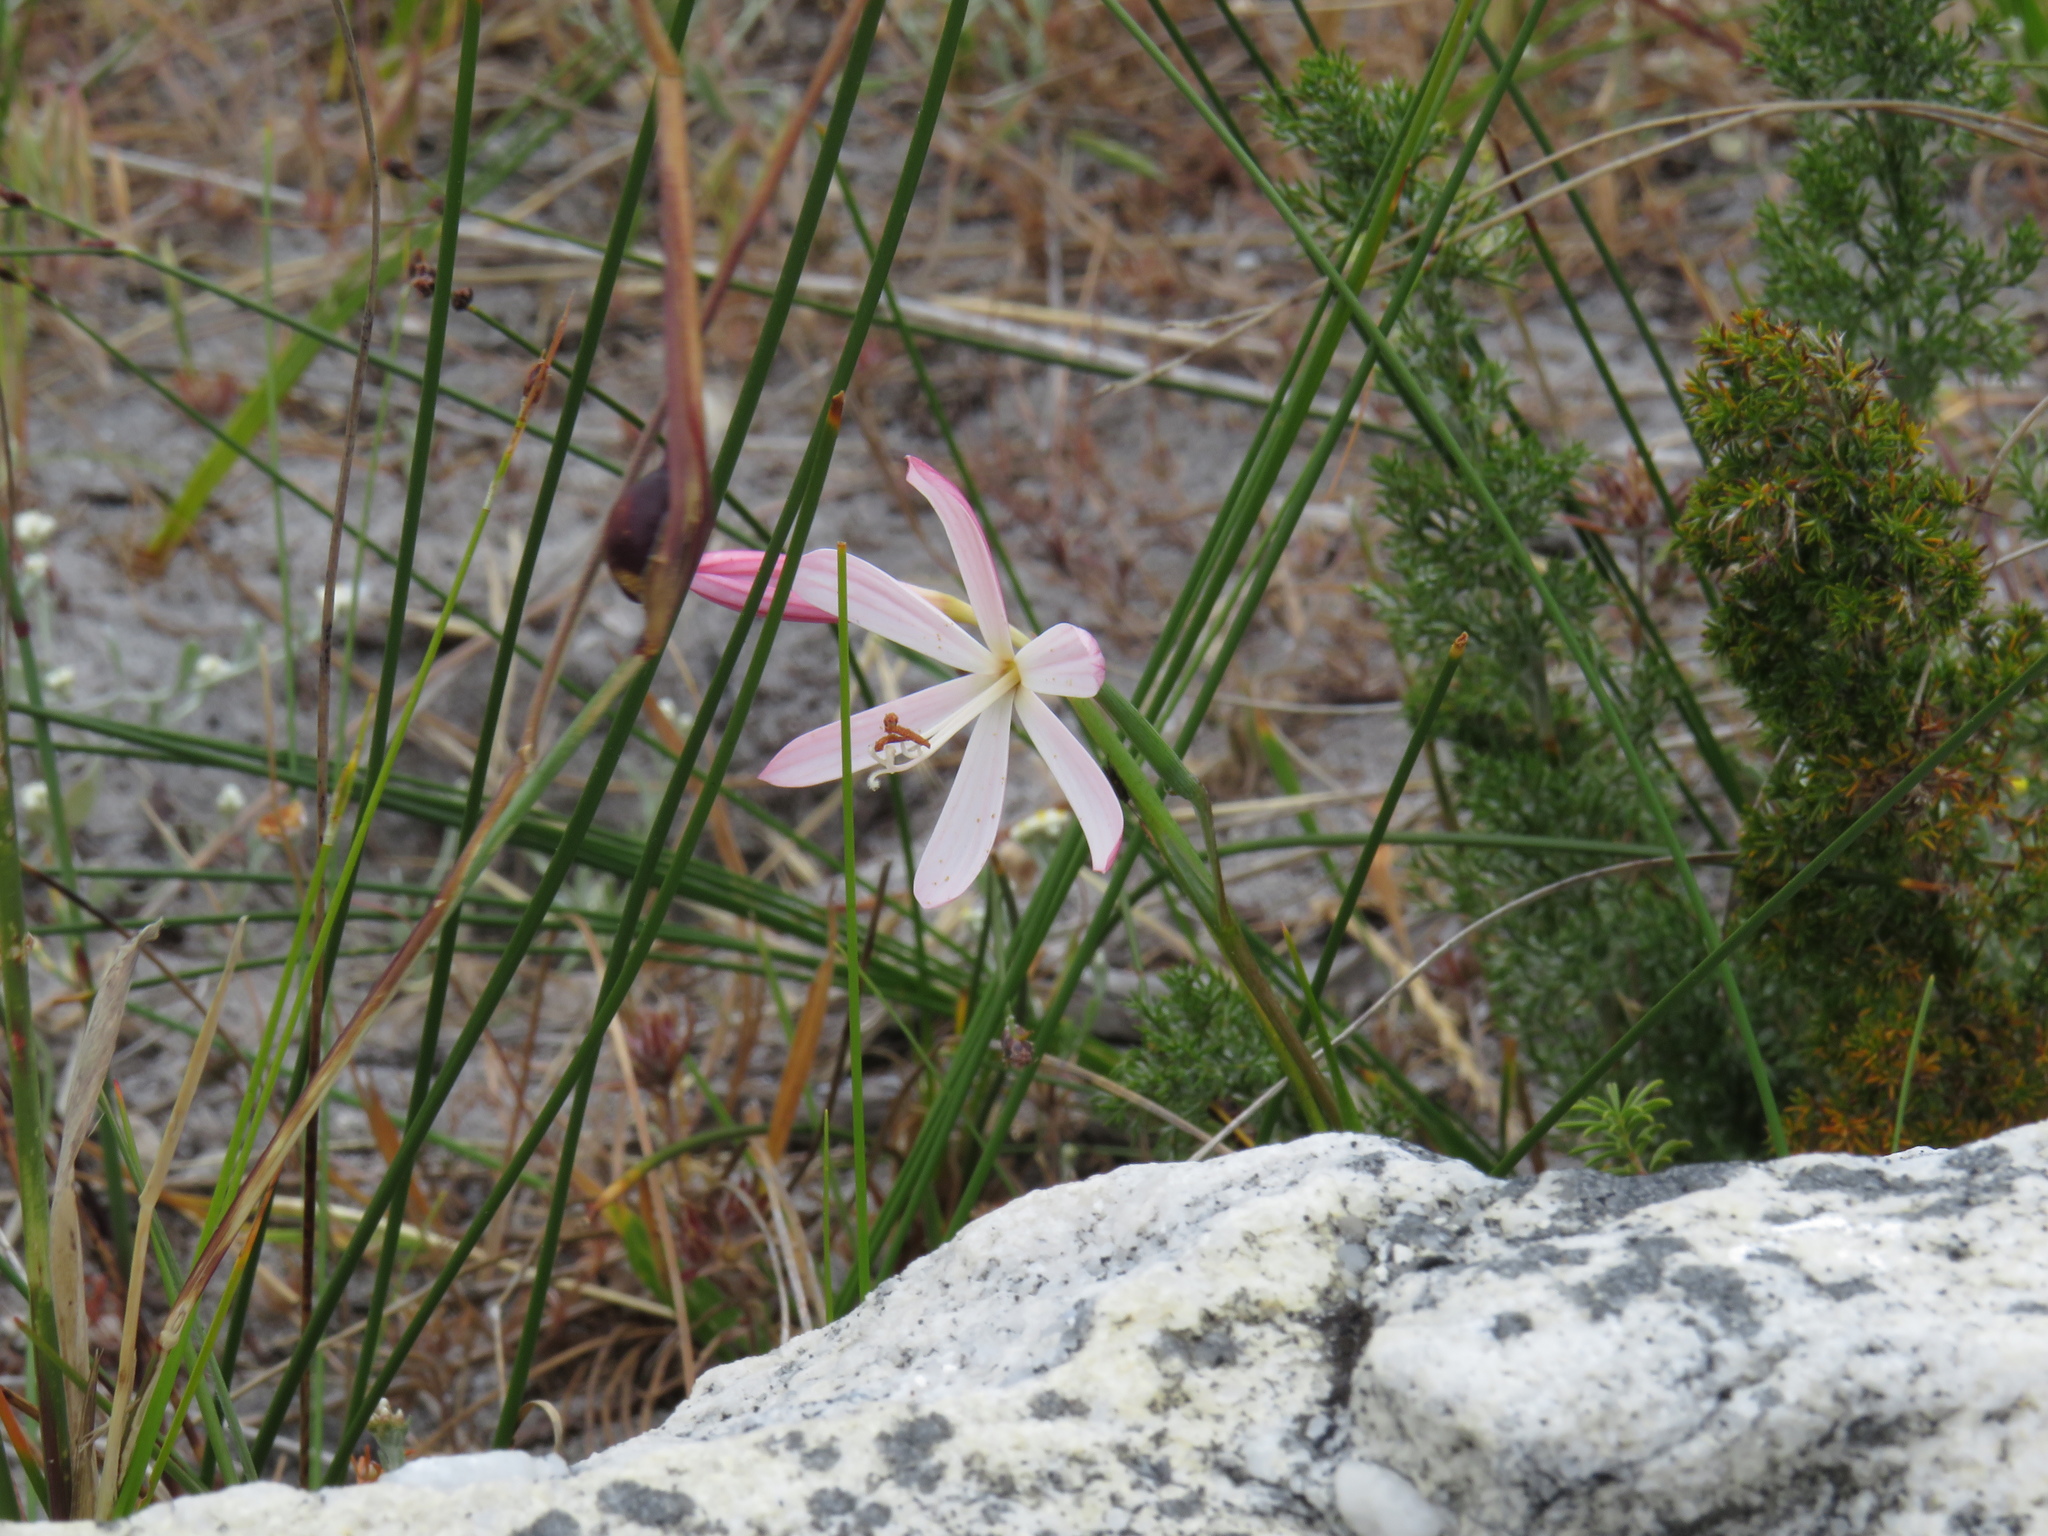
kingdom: Plantae
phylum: Tracheophyta
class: Liliopsida
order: Asparagales
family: Iridaceae
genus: Geissorhiza
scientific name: Geissorhiza bonae-spei
